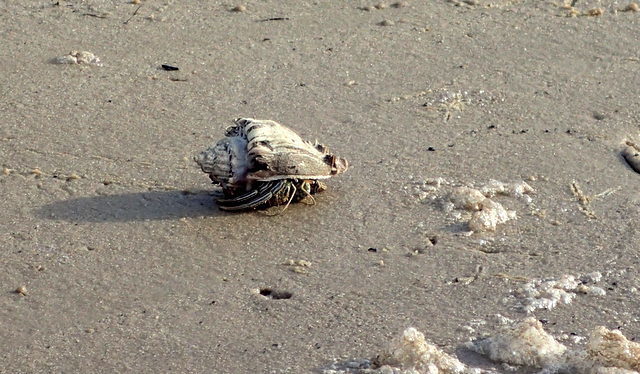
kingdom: Animalia
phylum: Arthropoda
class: Malacostraca
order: Decapoda
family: Diogenidae
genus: Clibanarius
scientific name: Clibanarius vittatus
